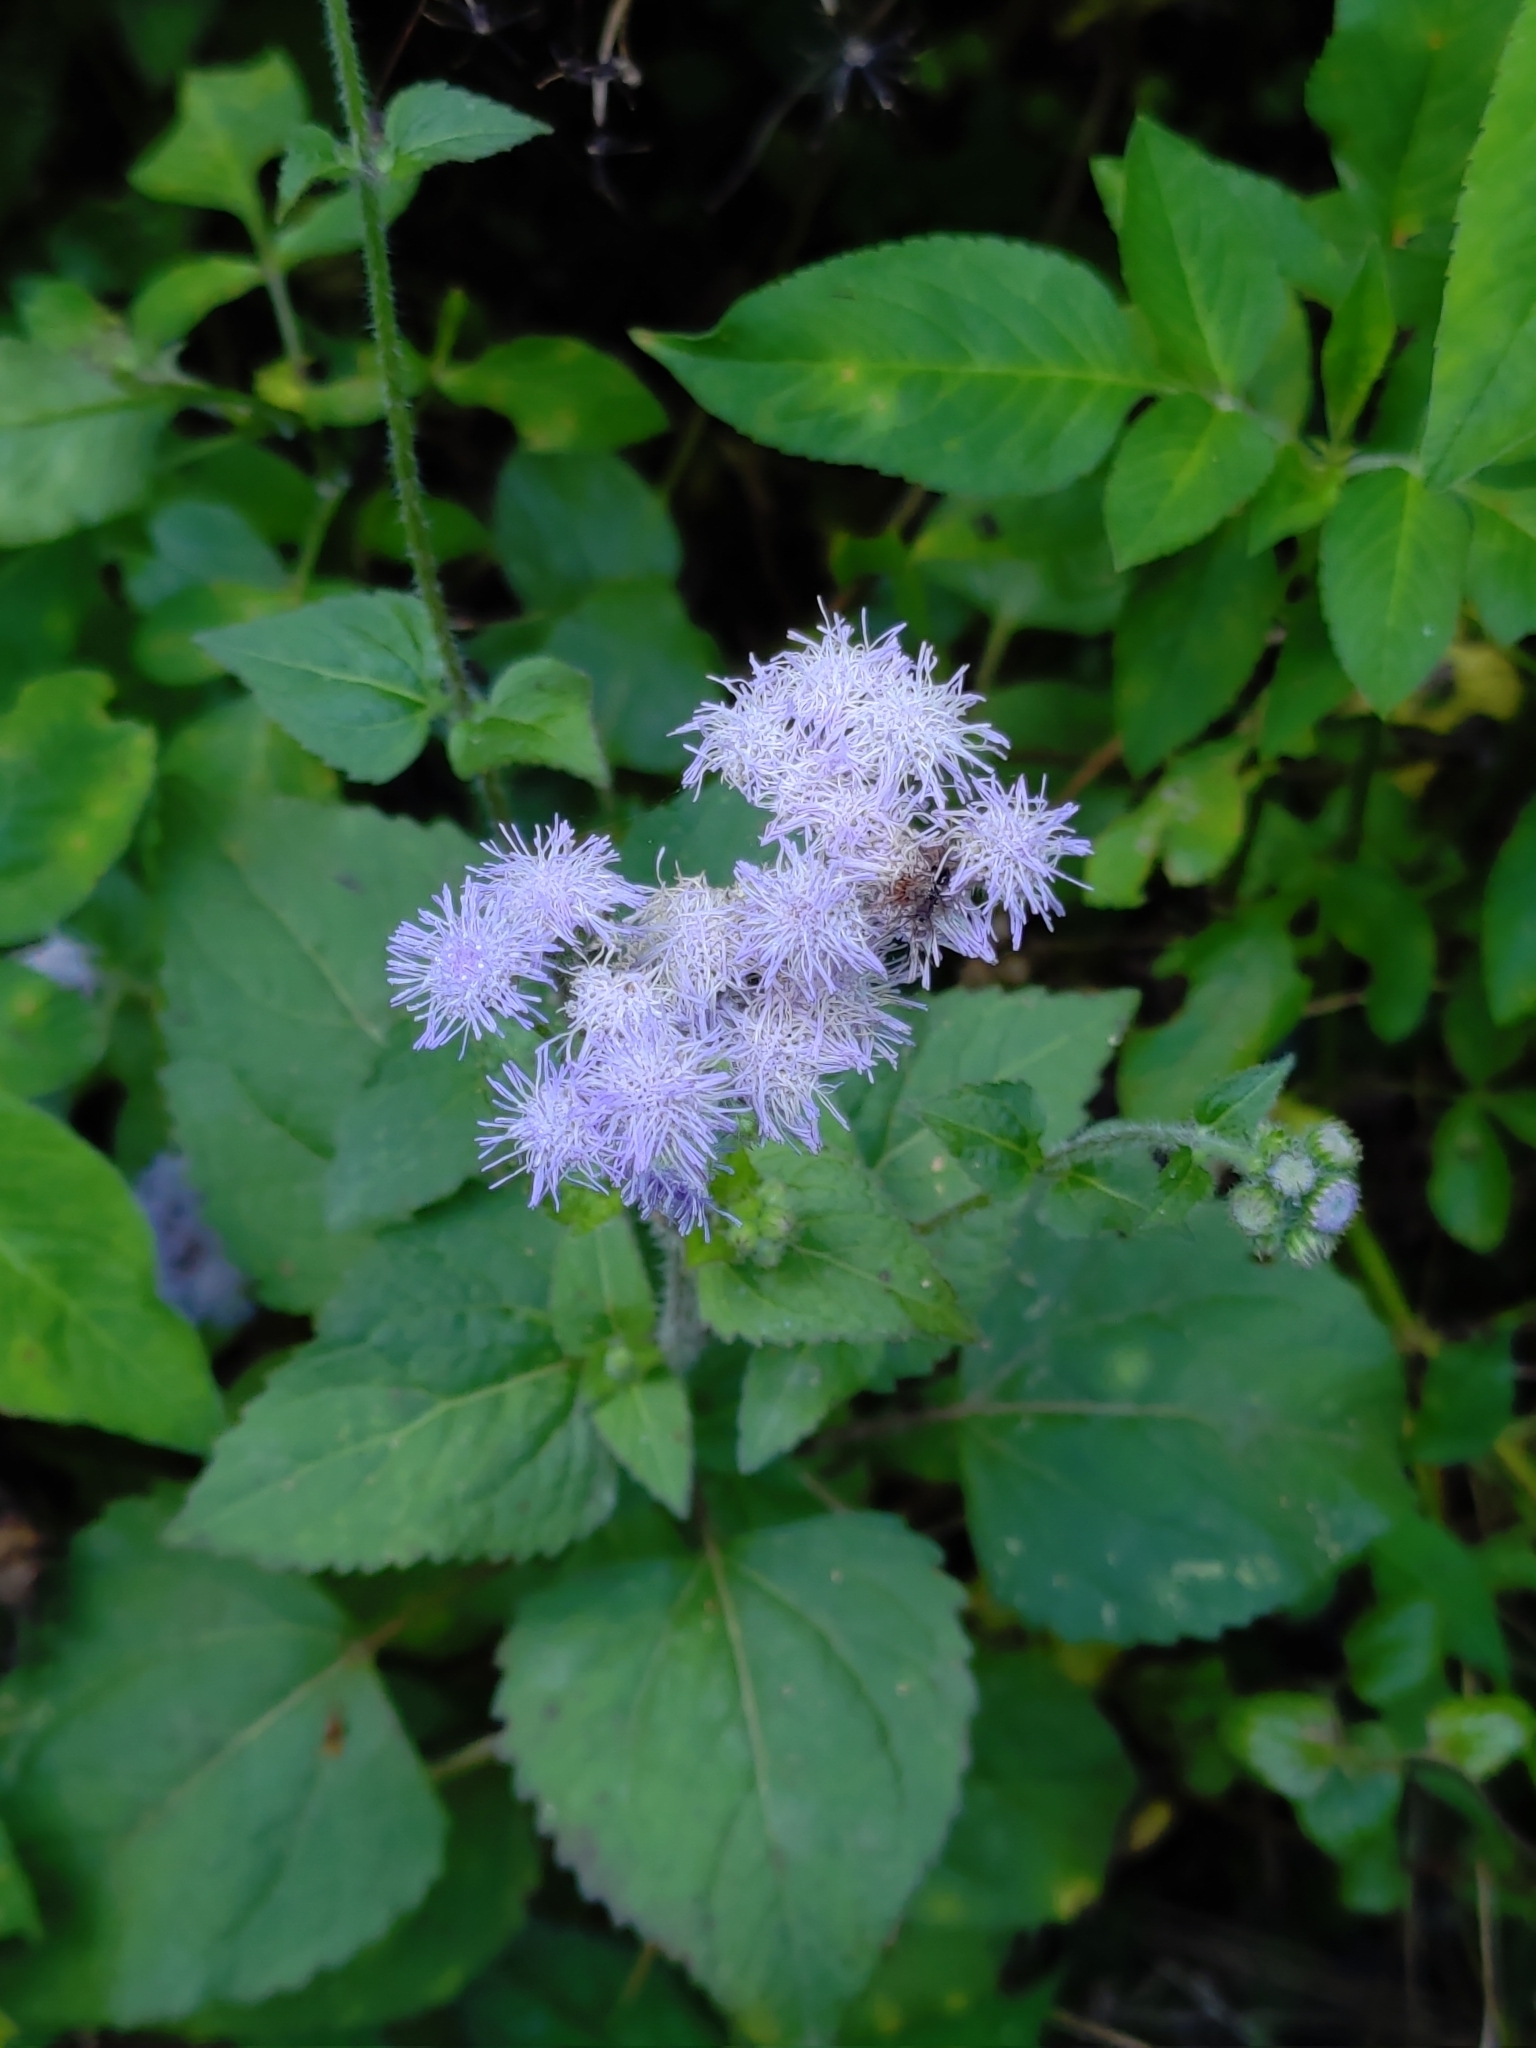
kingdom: Plantae
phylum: Tracheophyta
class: Magnoliopsida
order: Asterales
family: Asteraceae
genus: Ageratum
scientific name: Ageratum houstonianum
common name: Bluemink
